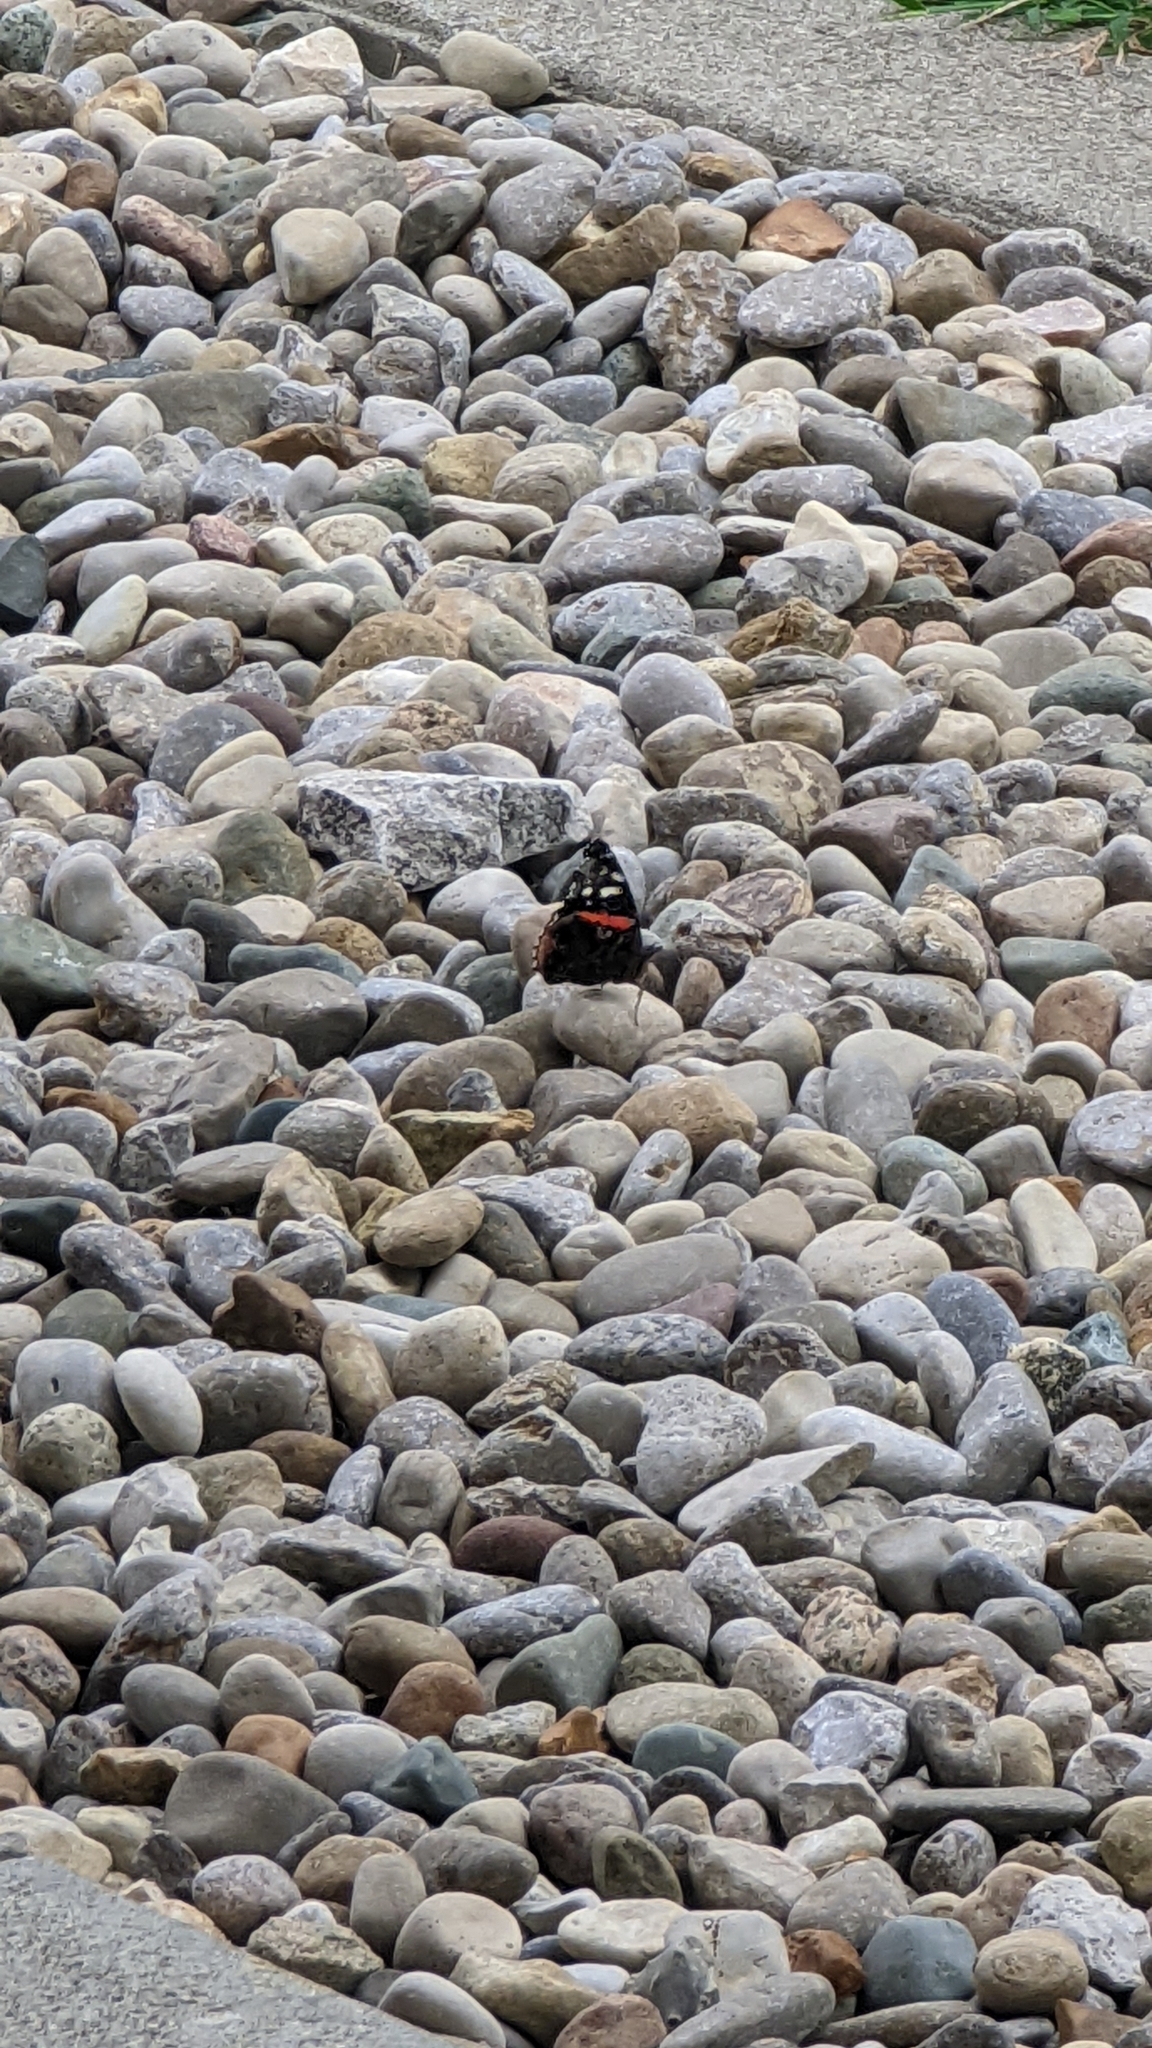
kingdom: Animalia
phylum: Arthropoda
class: Insecta
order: Lepidoptera
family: Nymphalidae
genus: Vanessa
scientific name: Vanessa atalanta
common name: Red admiral
